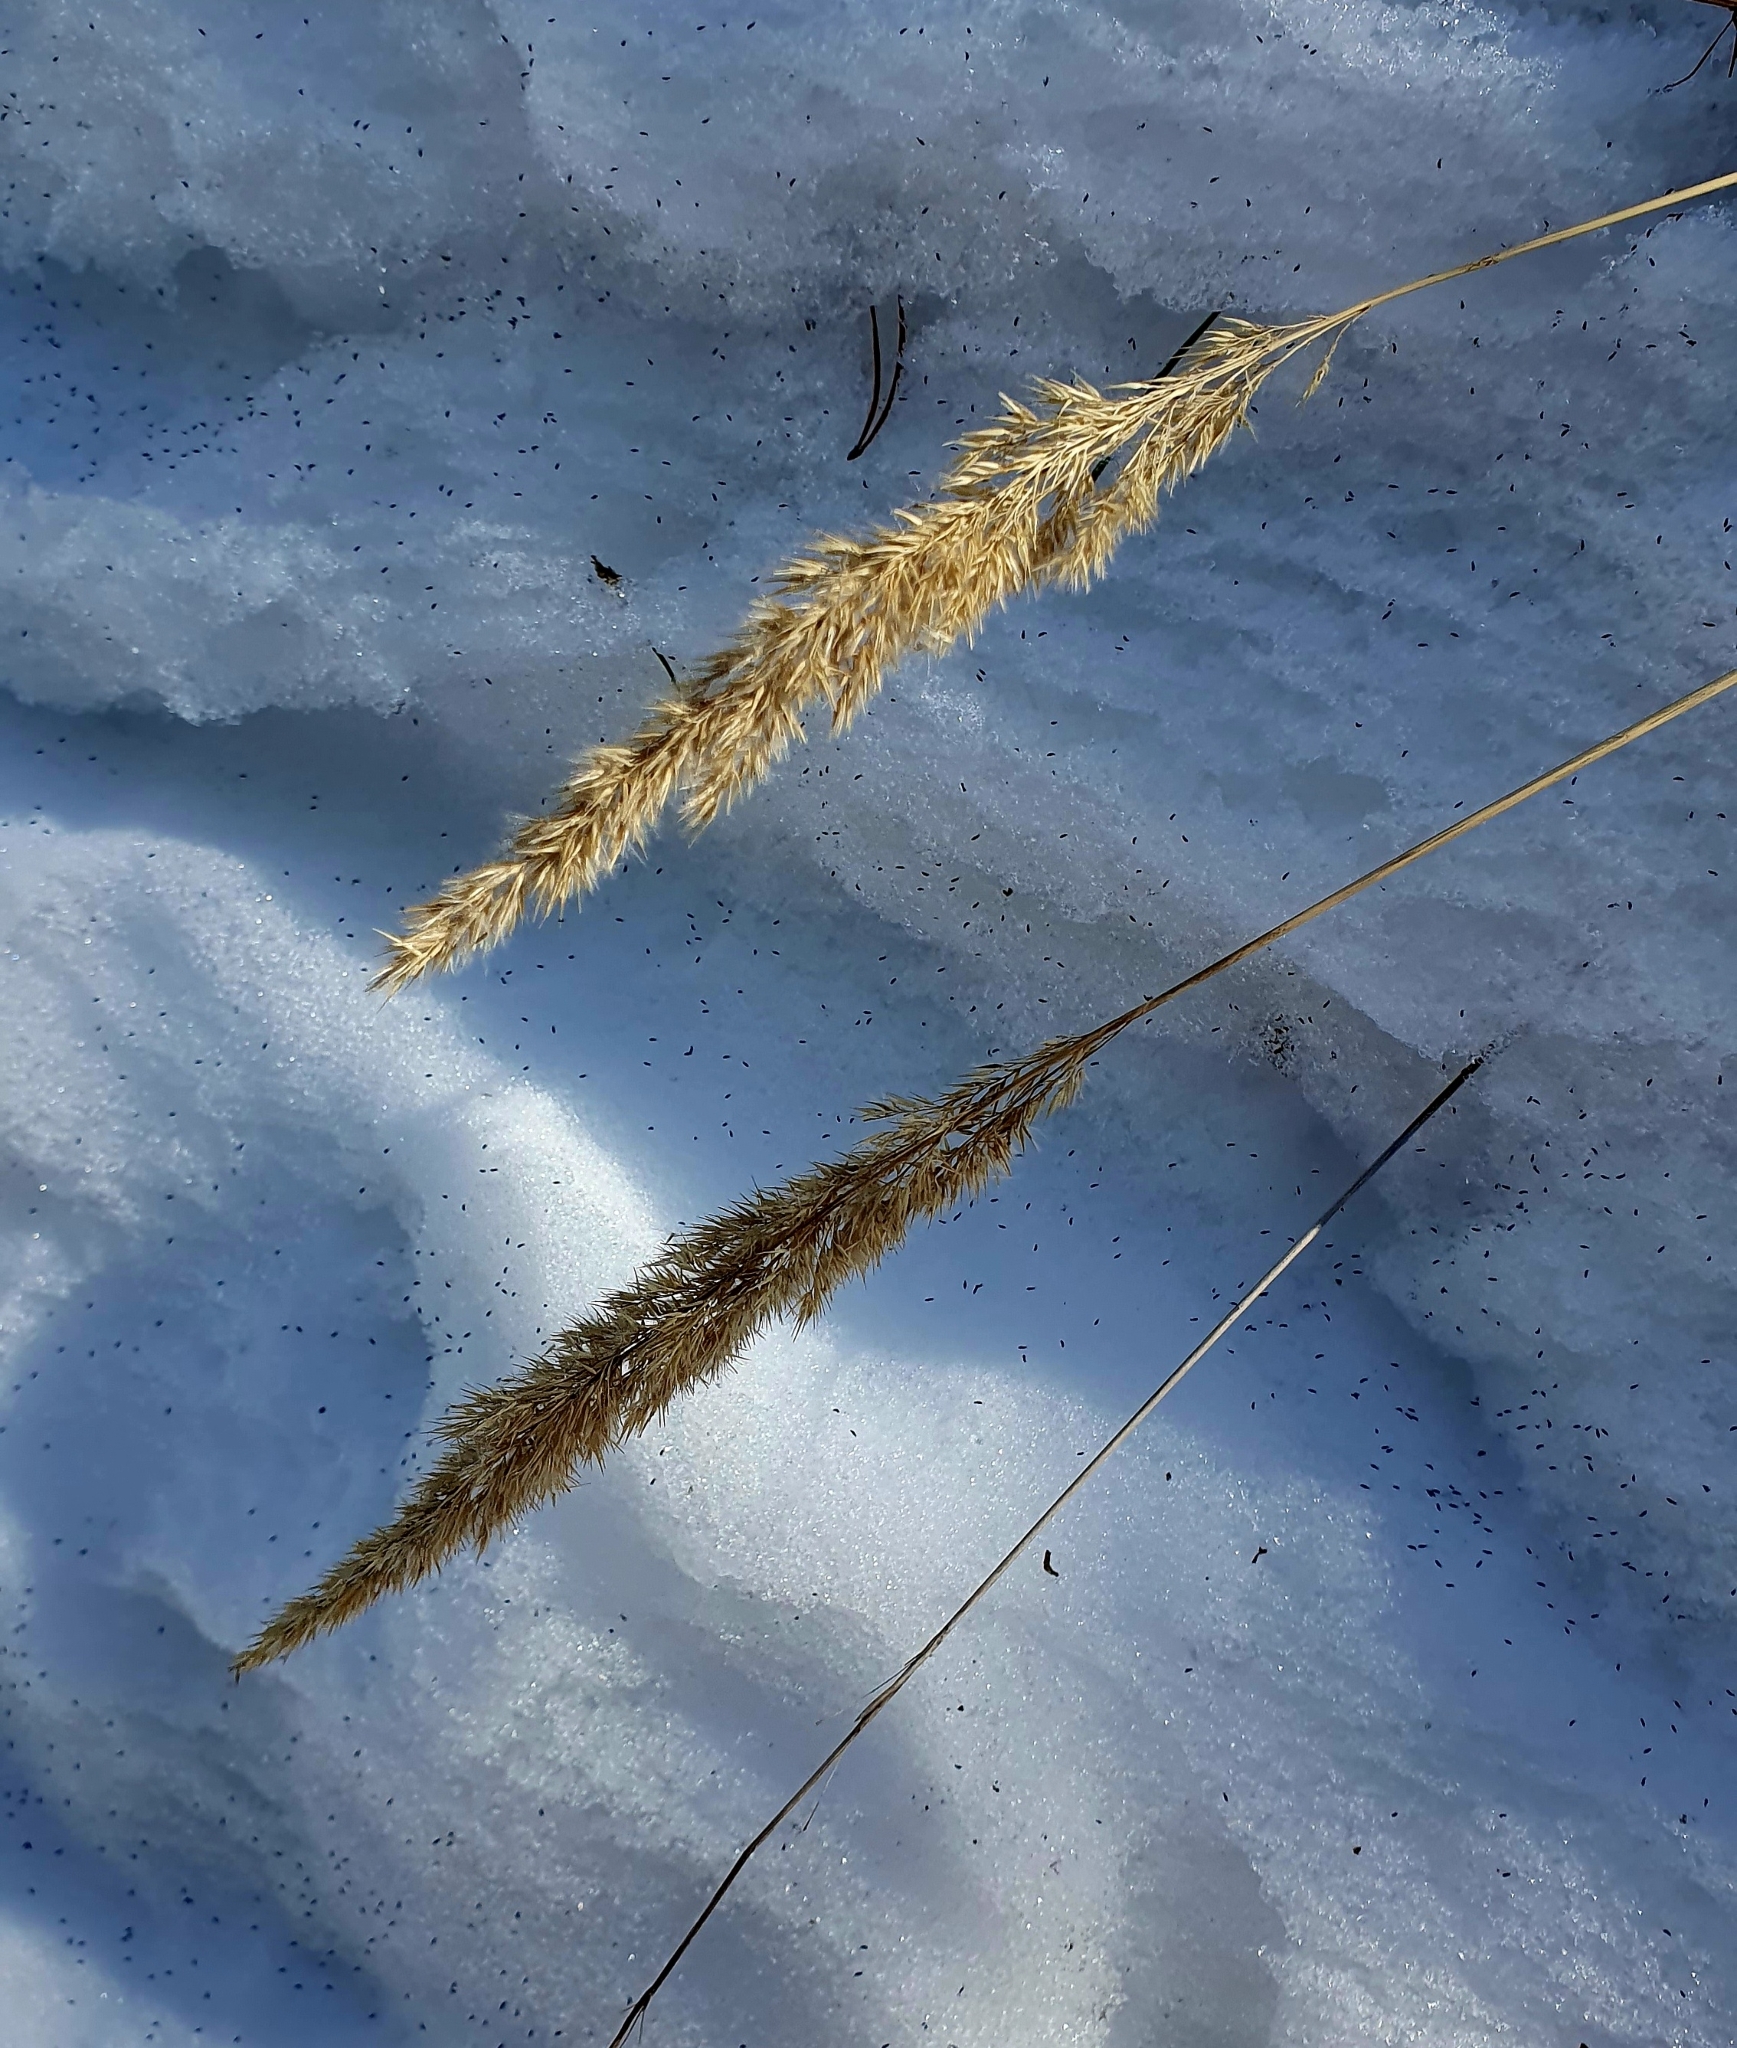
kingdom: Plantae
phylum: Tracheophyta
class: Liliopsida
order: Poales
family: Poaceae
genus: Calamagrostis
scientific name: Calamagrostis epigejos
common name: Wood small-reed
